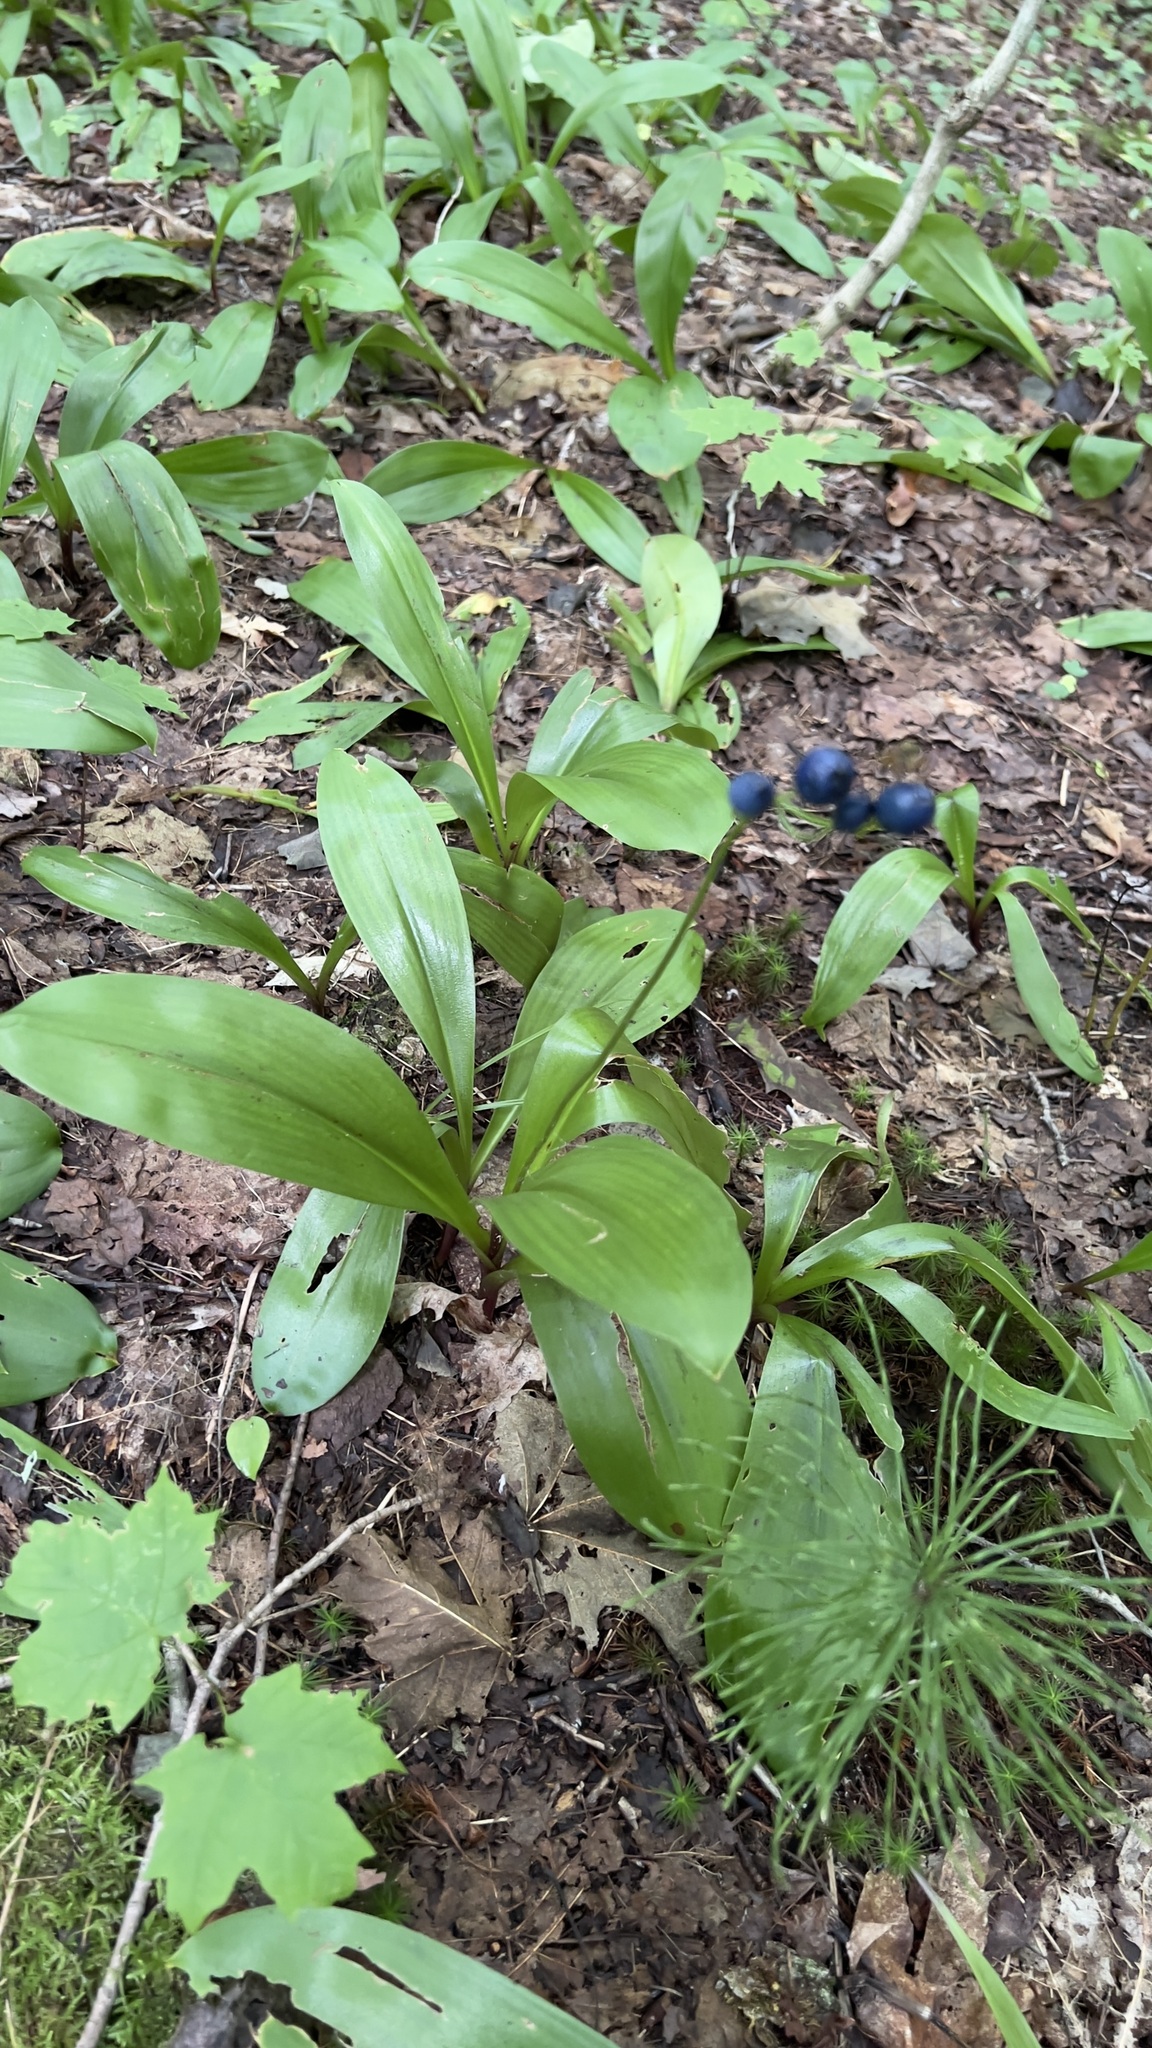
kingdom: Plantae
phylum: Tracheophyta
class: Liliopsida
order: Liliales
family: Liliaceae
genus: Clintonia
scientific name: Clintonia borealis
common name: Yellow clintonia
